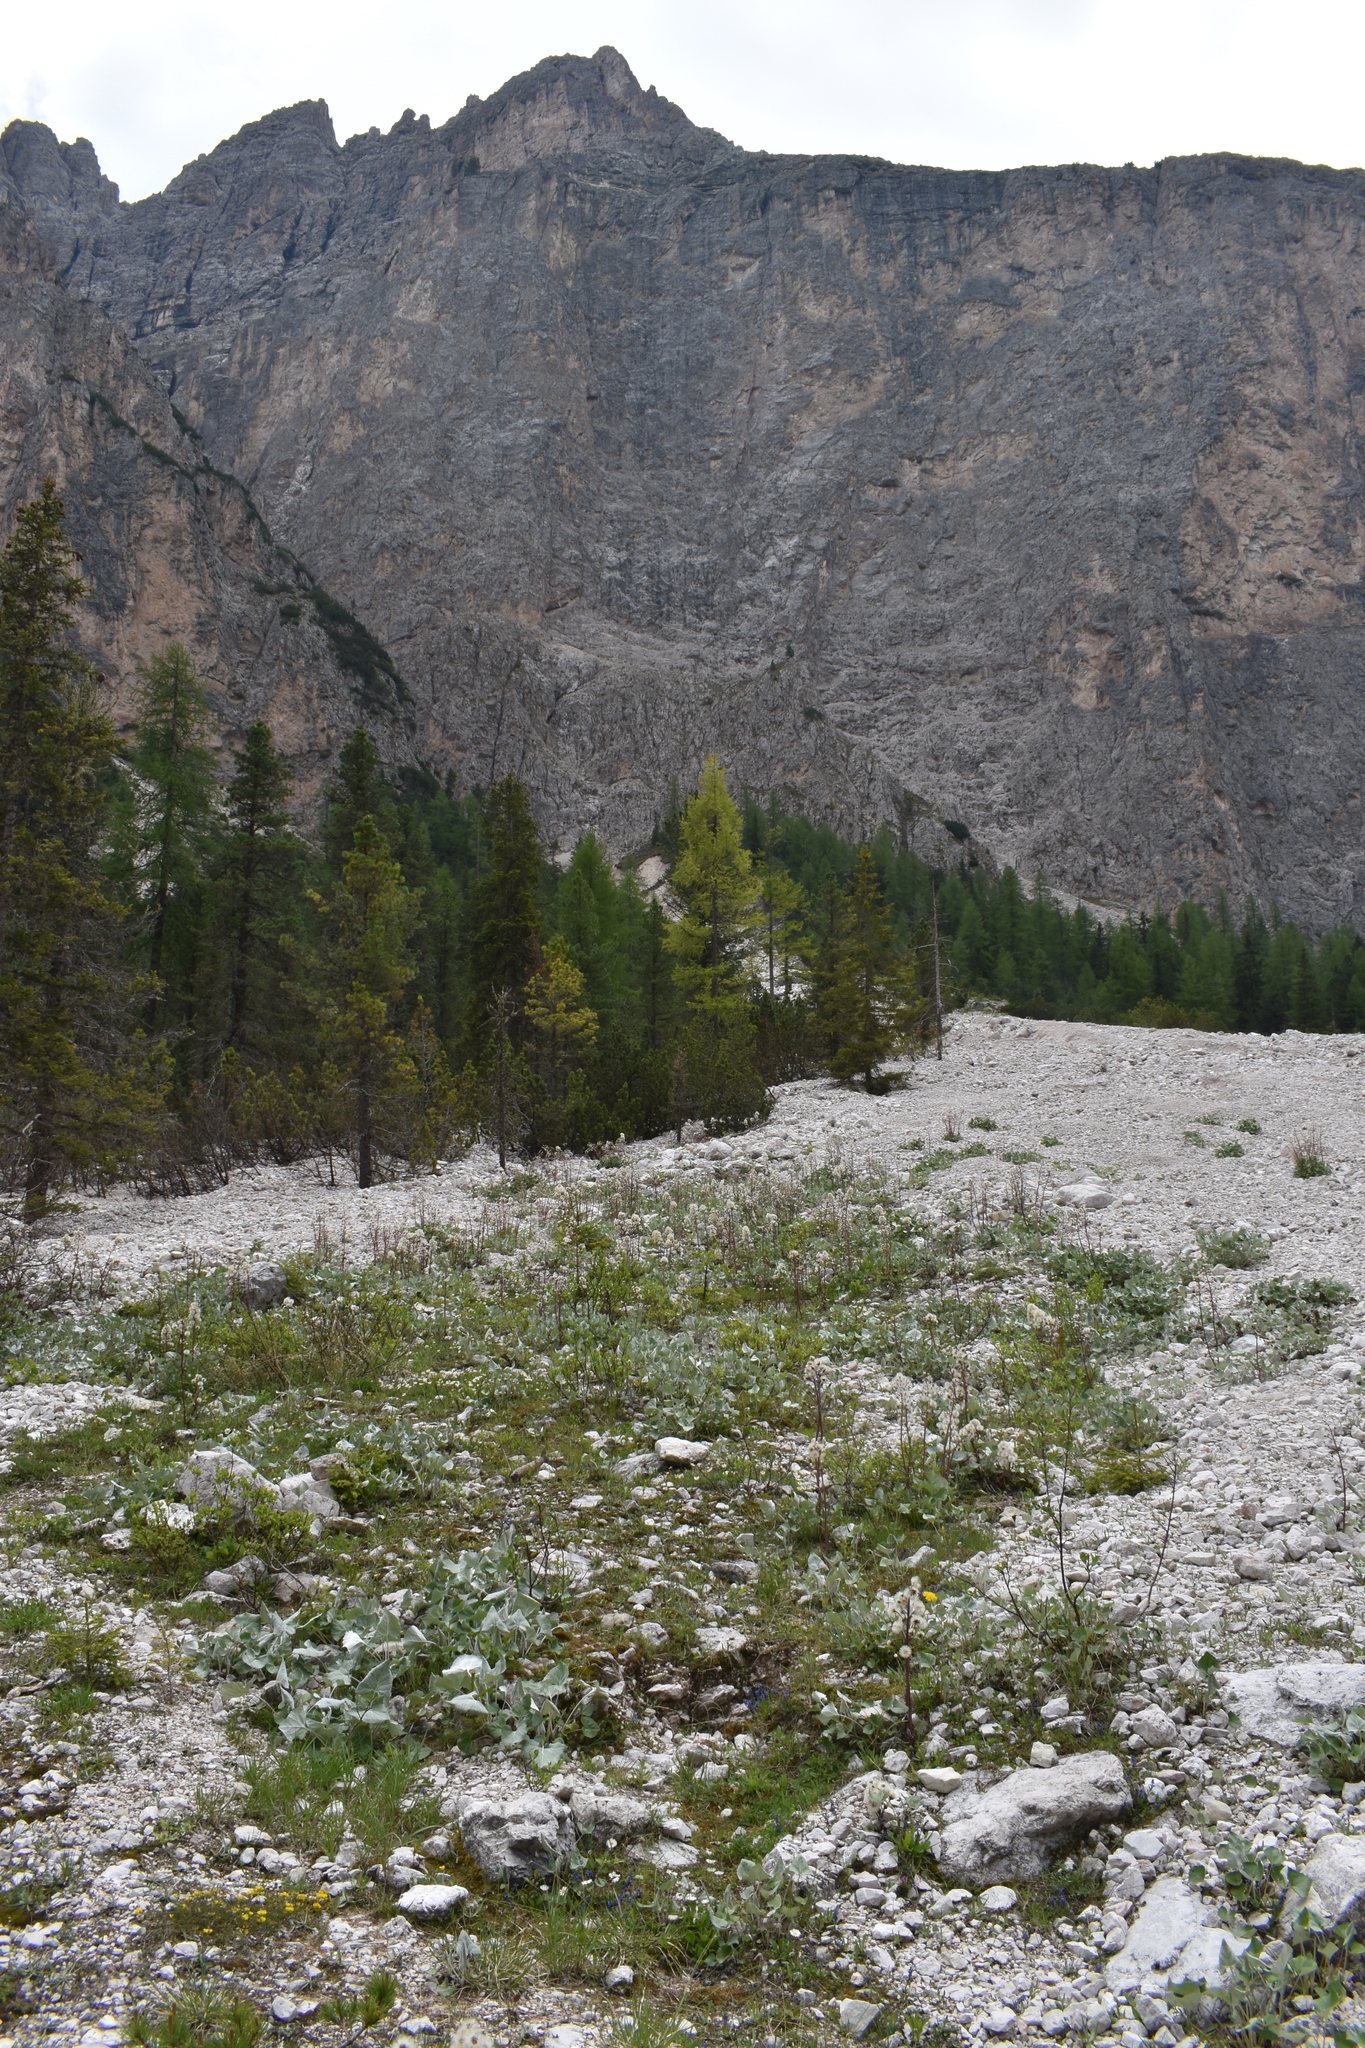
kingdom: Plantae
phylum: Tracheophyta
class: Magnoliopsida
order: Asterales
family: Asteraceae
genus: Petasites
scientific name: Petasites paradoxus
